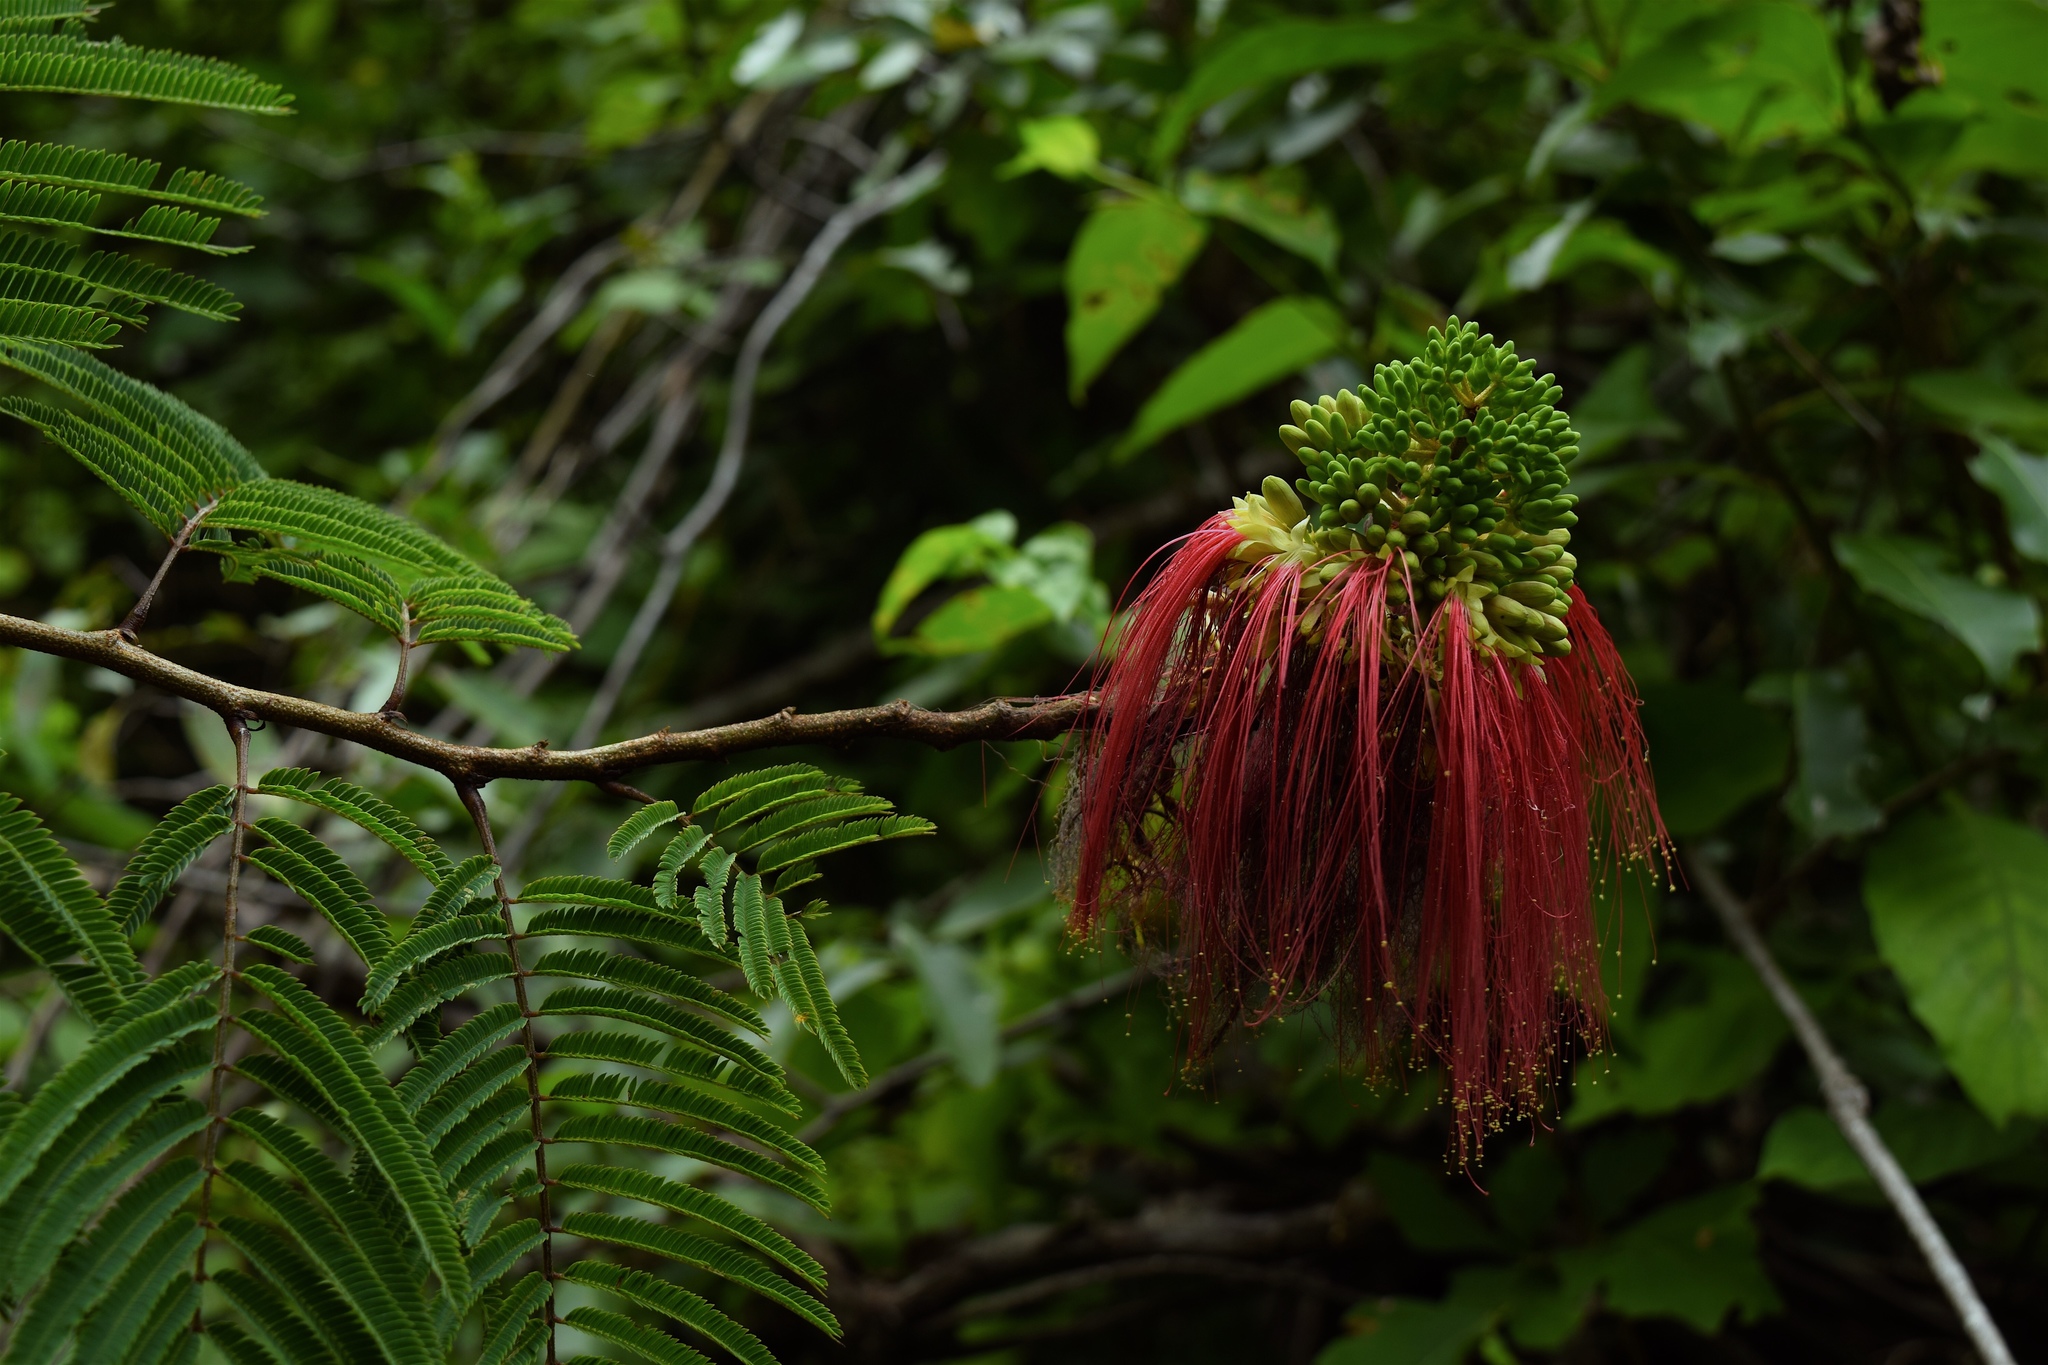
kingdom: Plantae
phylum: Tracheophyta
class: Magnoliopsida
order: Fabales
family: Fabaceae
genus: Calliandra
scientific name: Calliandra houstoniana
